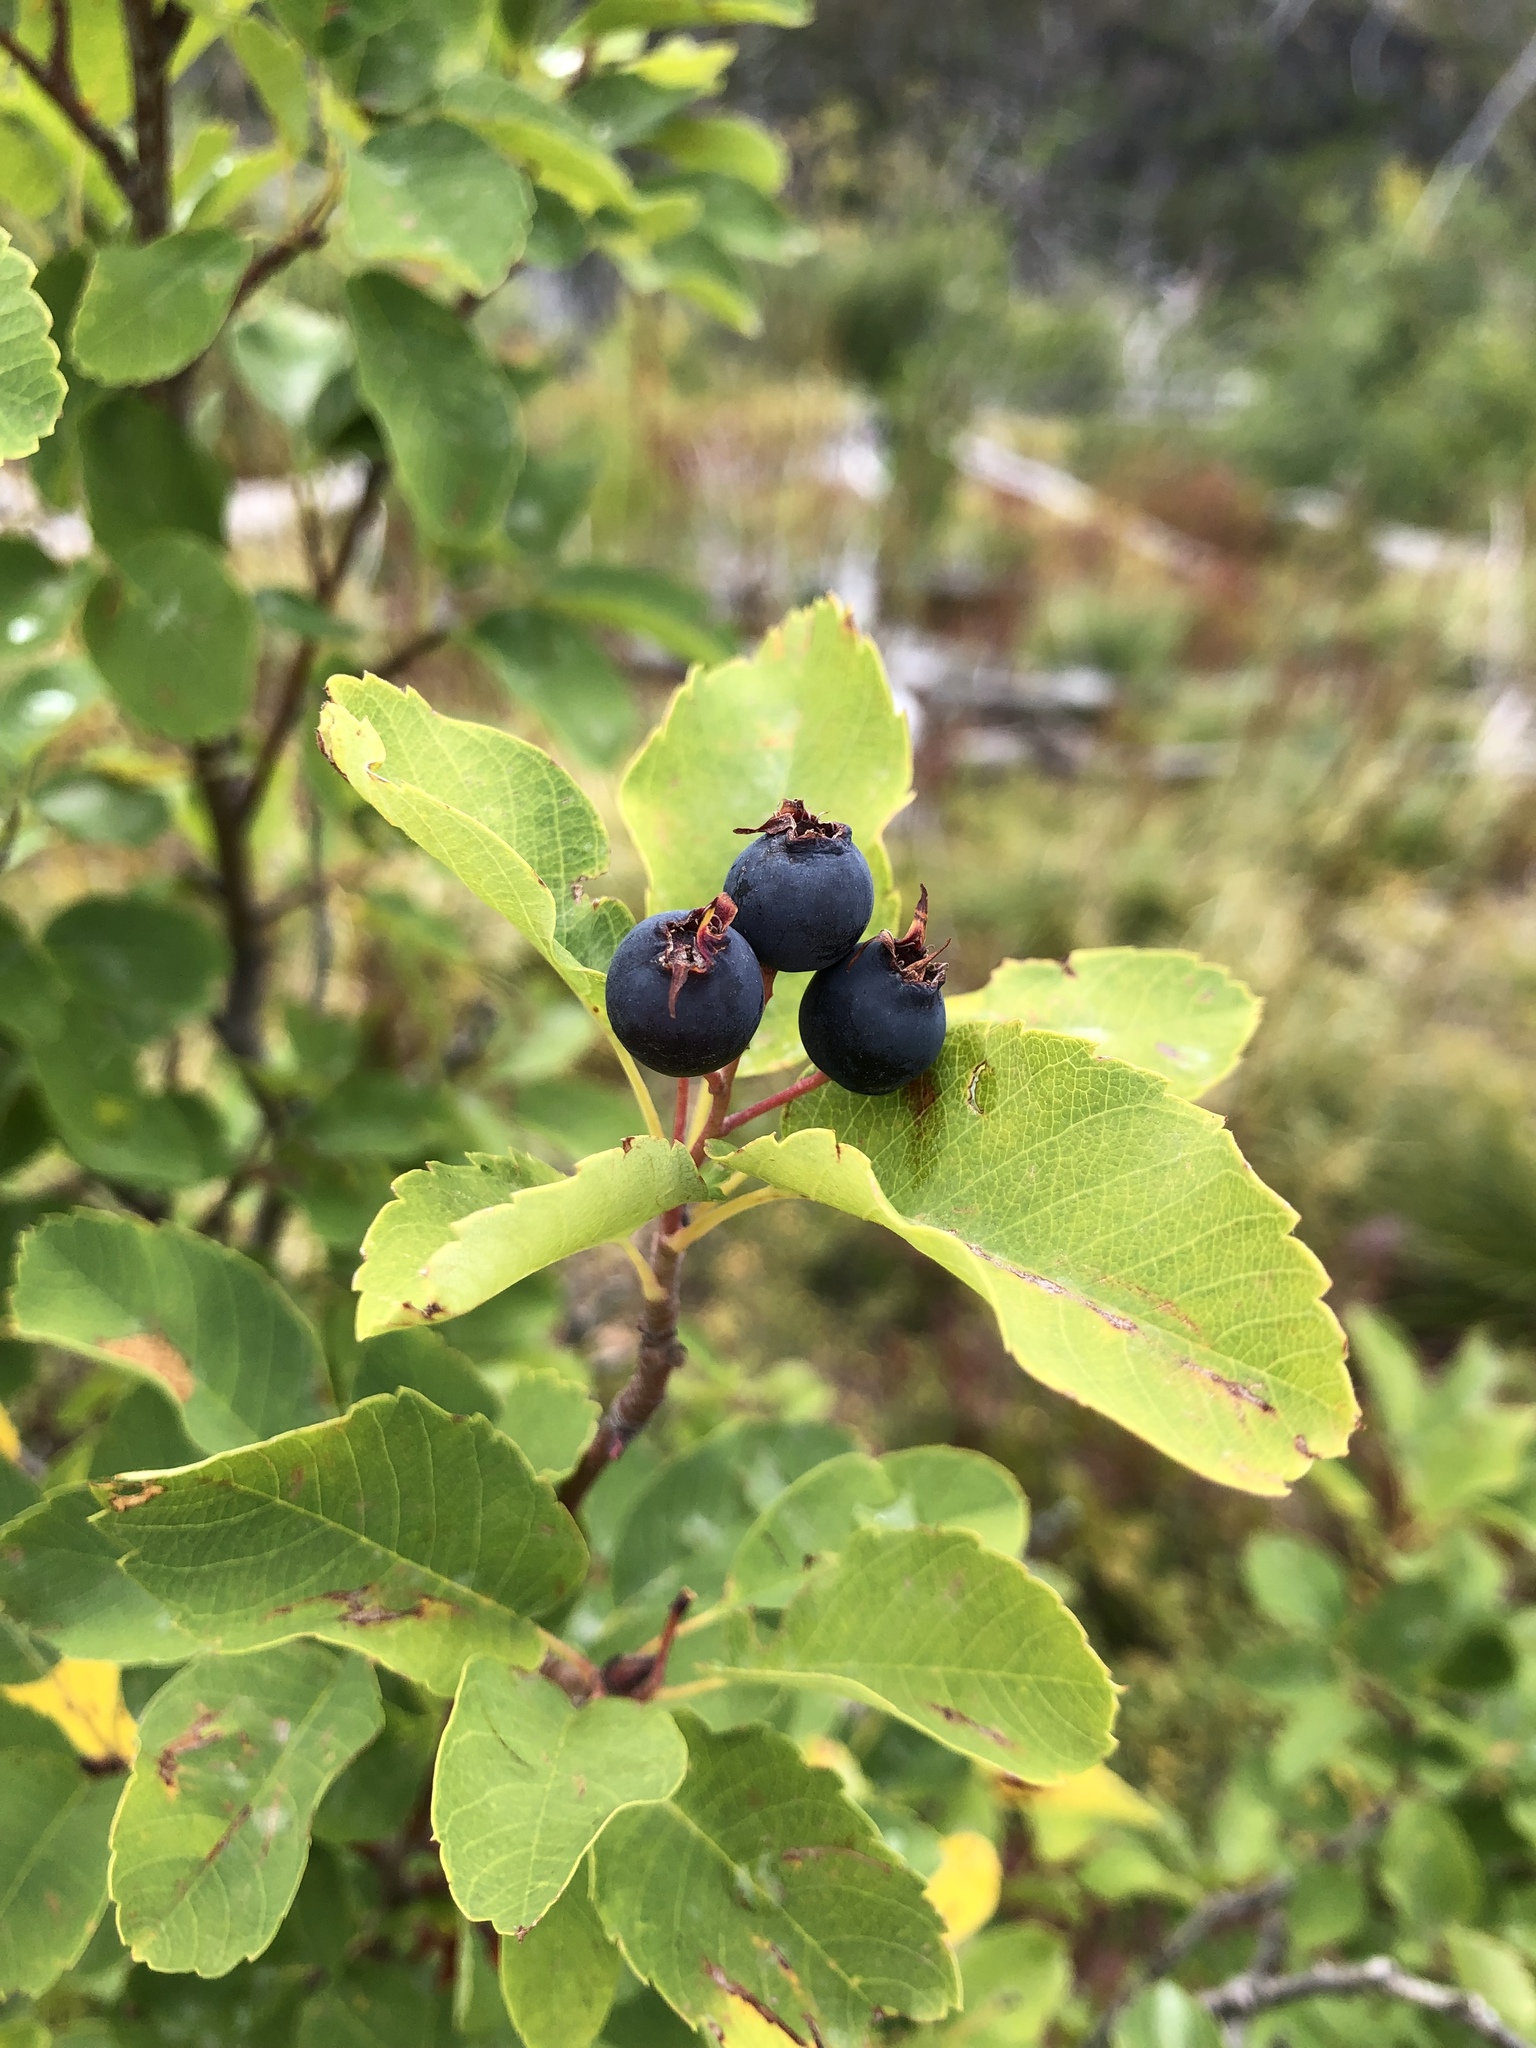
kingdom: Plantae
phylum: Tracheophyta
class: Magnoliopsida
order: Rosales
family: Rosaceae
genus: Amelanchier
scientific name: Amelanchier alnifolia
